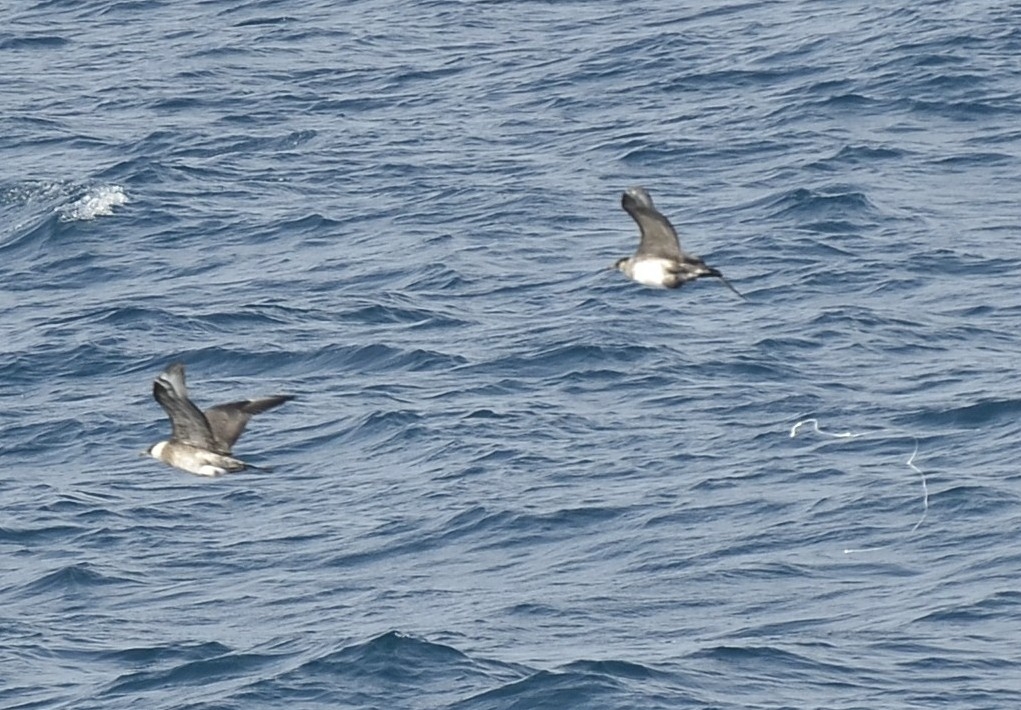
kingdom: Animalia
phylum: Chordata
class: Aves
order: Charadriiformes
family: Stercorariidae
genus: Stercorarius
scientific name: Stercorarius pomarinus
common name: Pomarine jaeger
